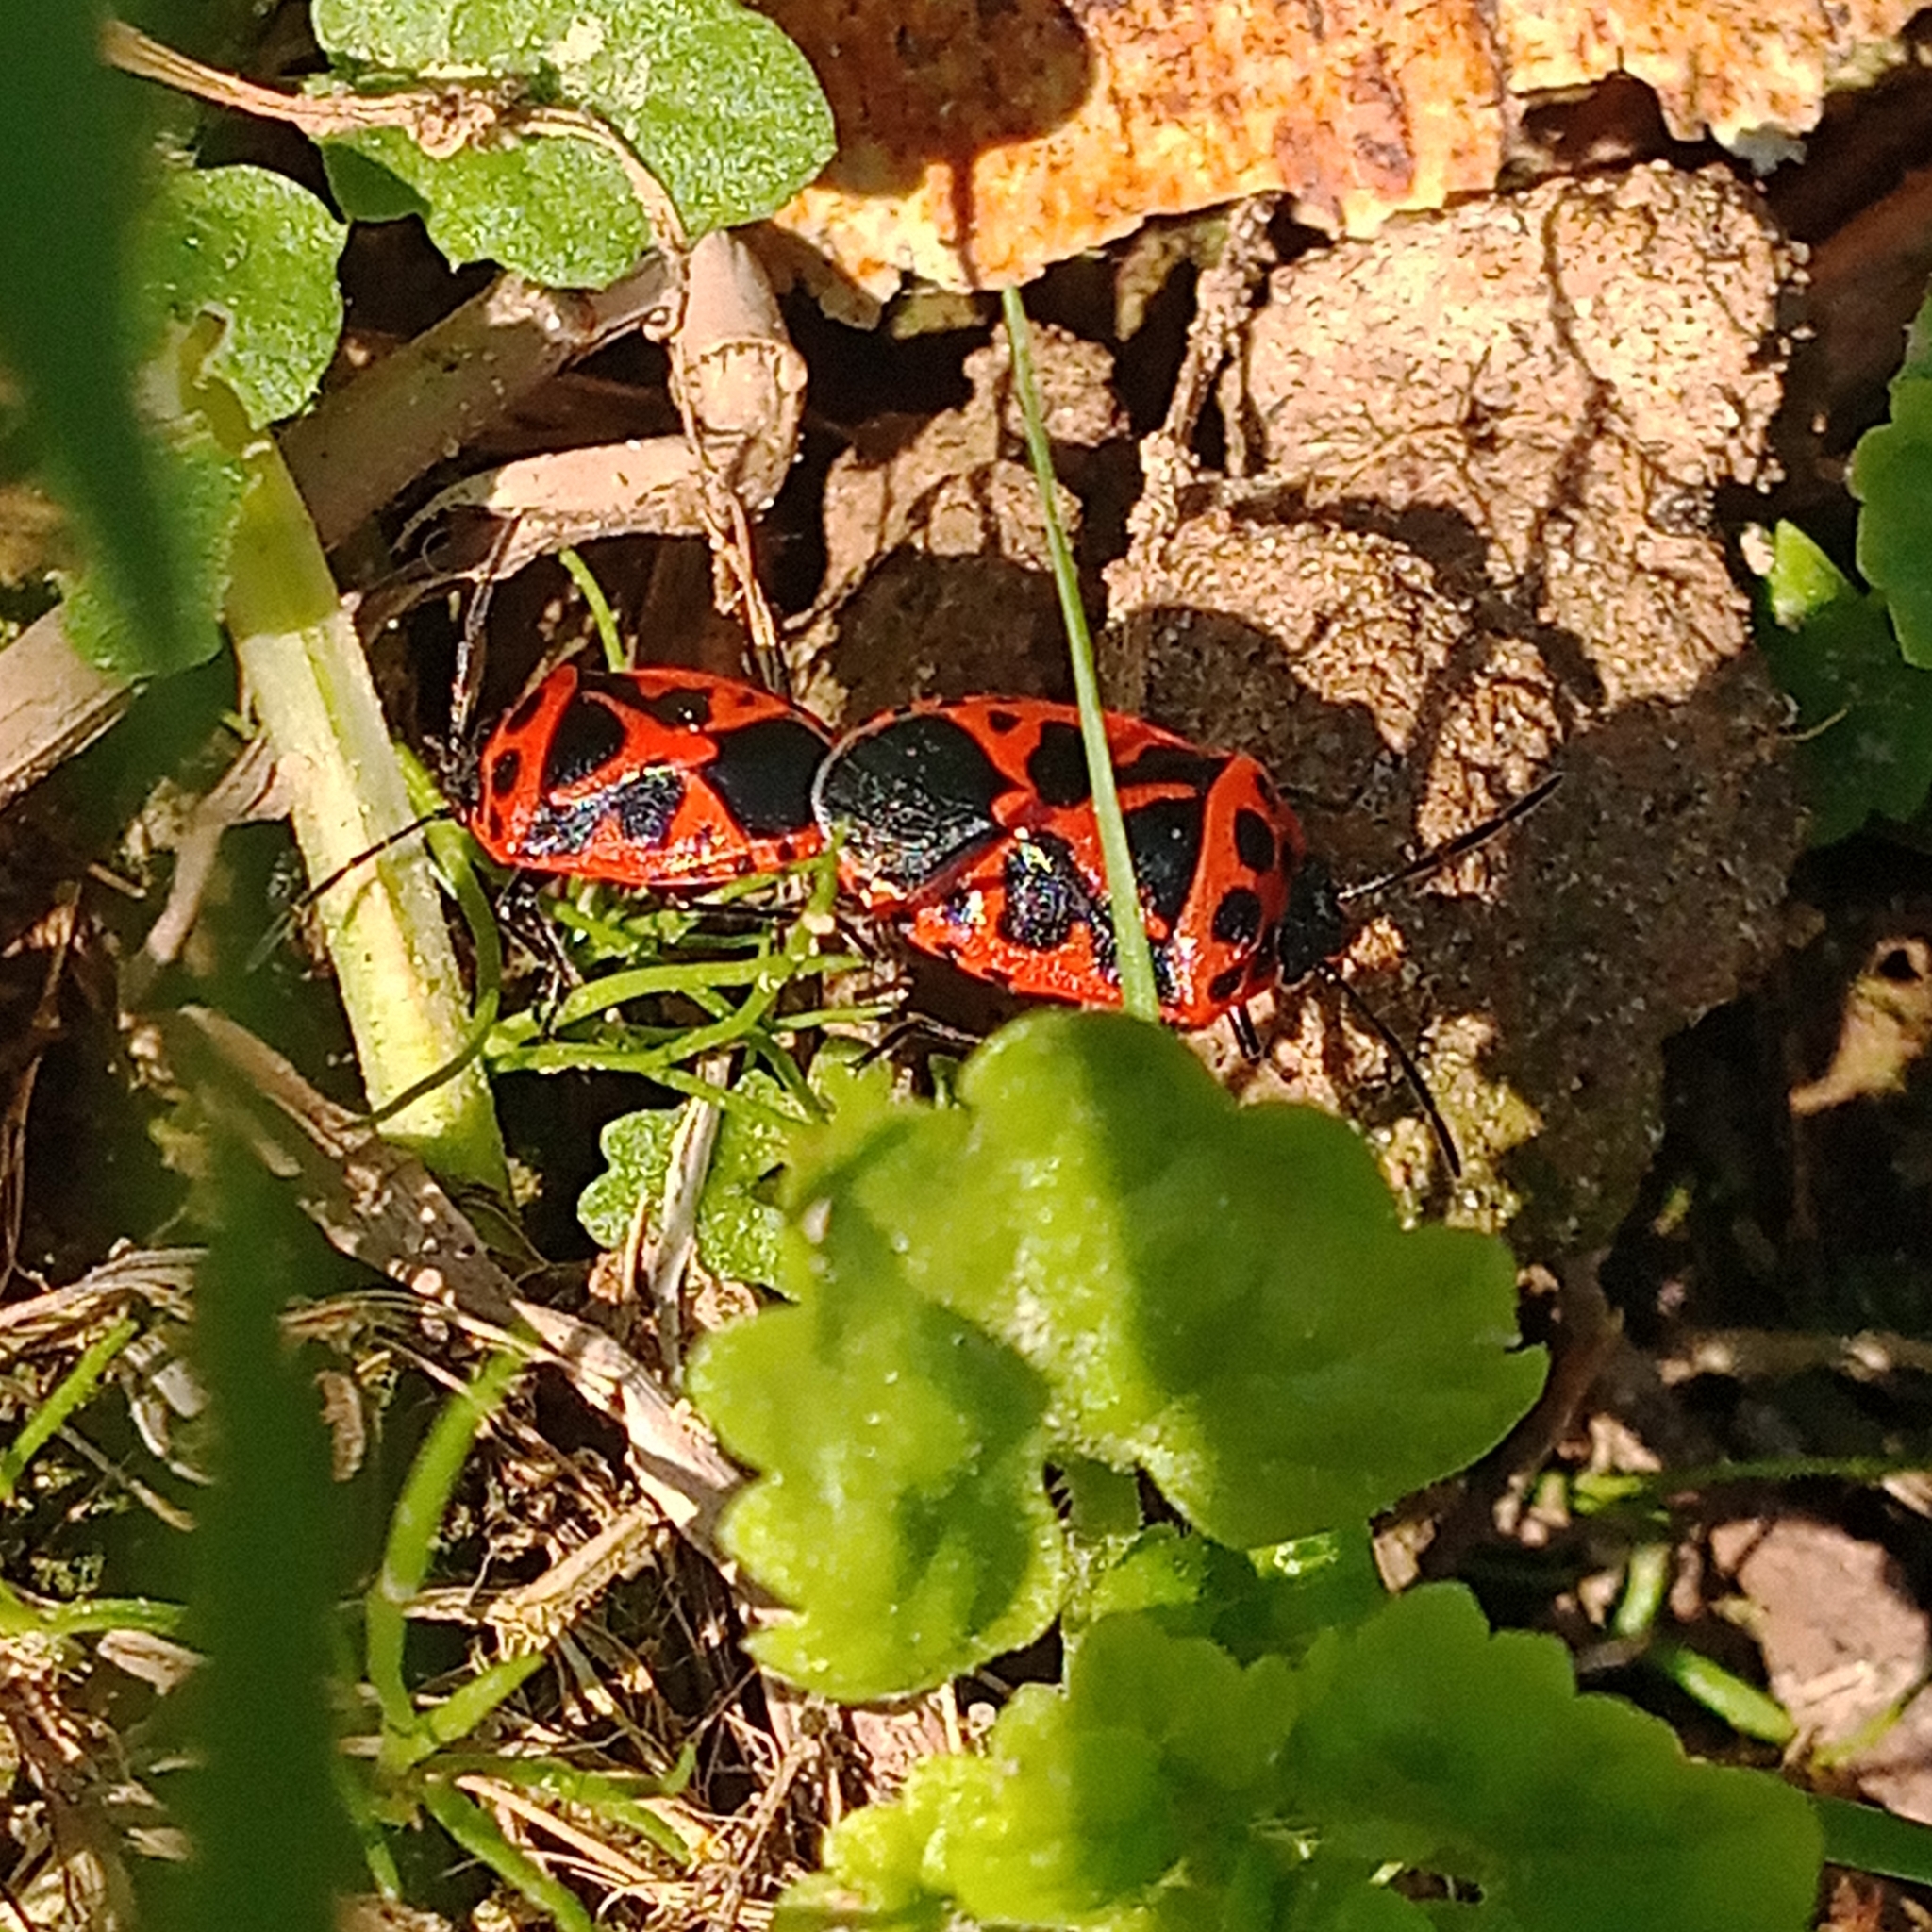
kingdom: Animalia
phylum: Arthropoda
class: Insecta
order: Hemiptera
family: Pentatomidae
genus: Eurydema
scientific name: Eurydema dominulus
